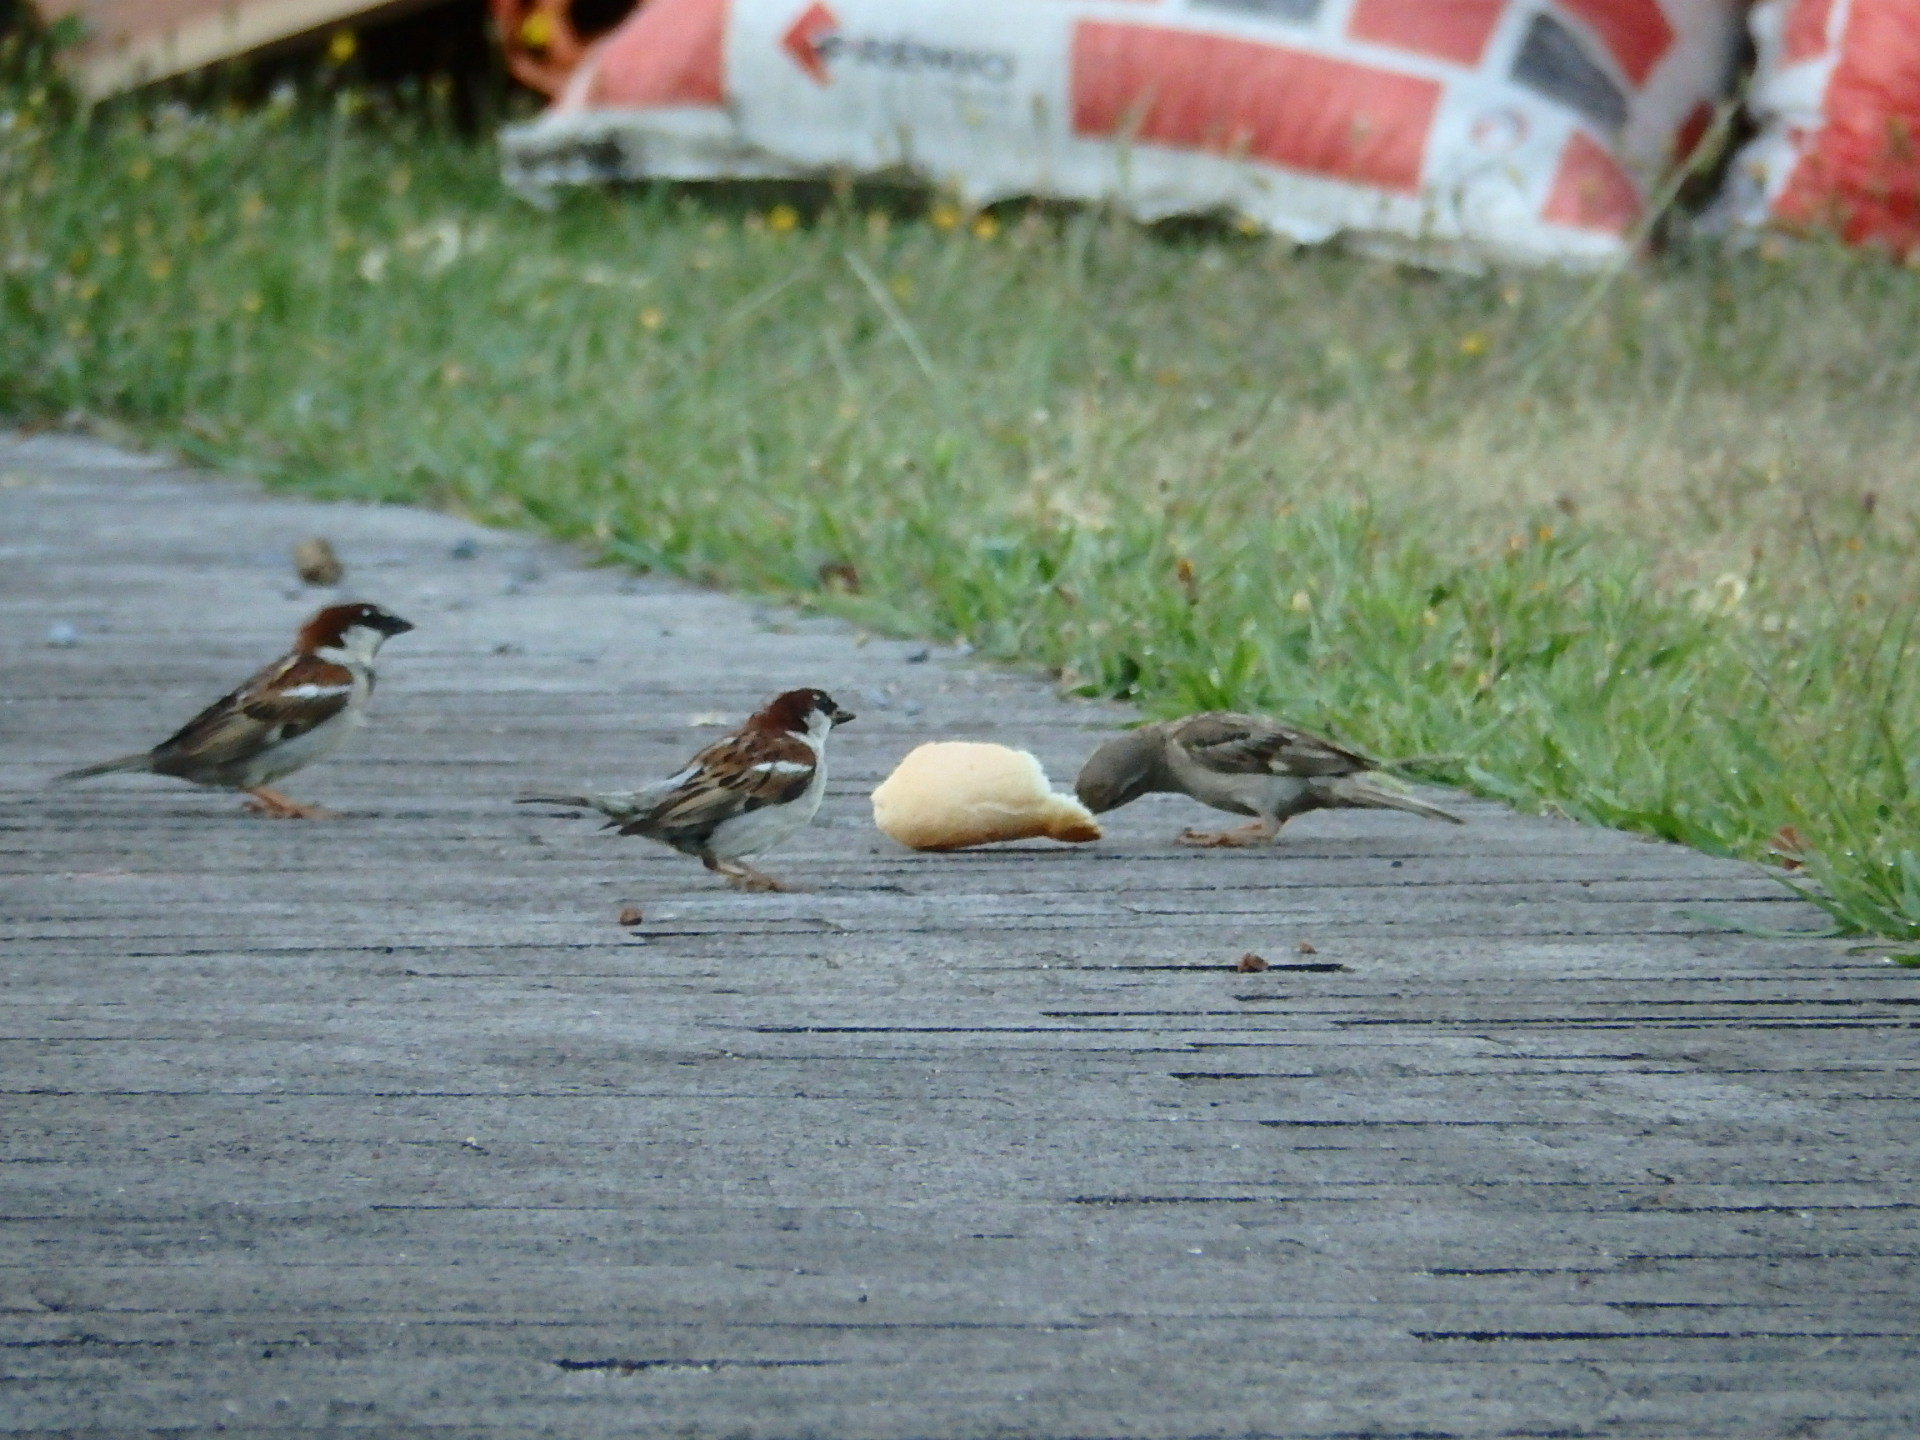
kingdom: Animalia
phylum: Chordata
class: Aves
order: Passeriformes
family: Passeridae
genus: Passer
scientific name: Passer domesticus
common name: House sparrow
